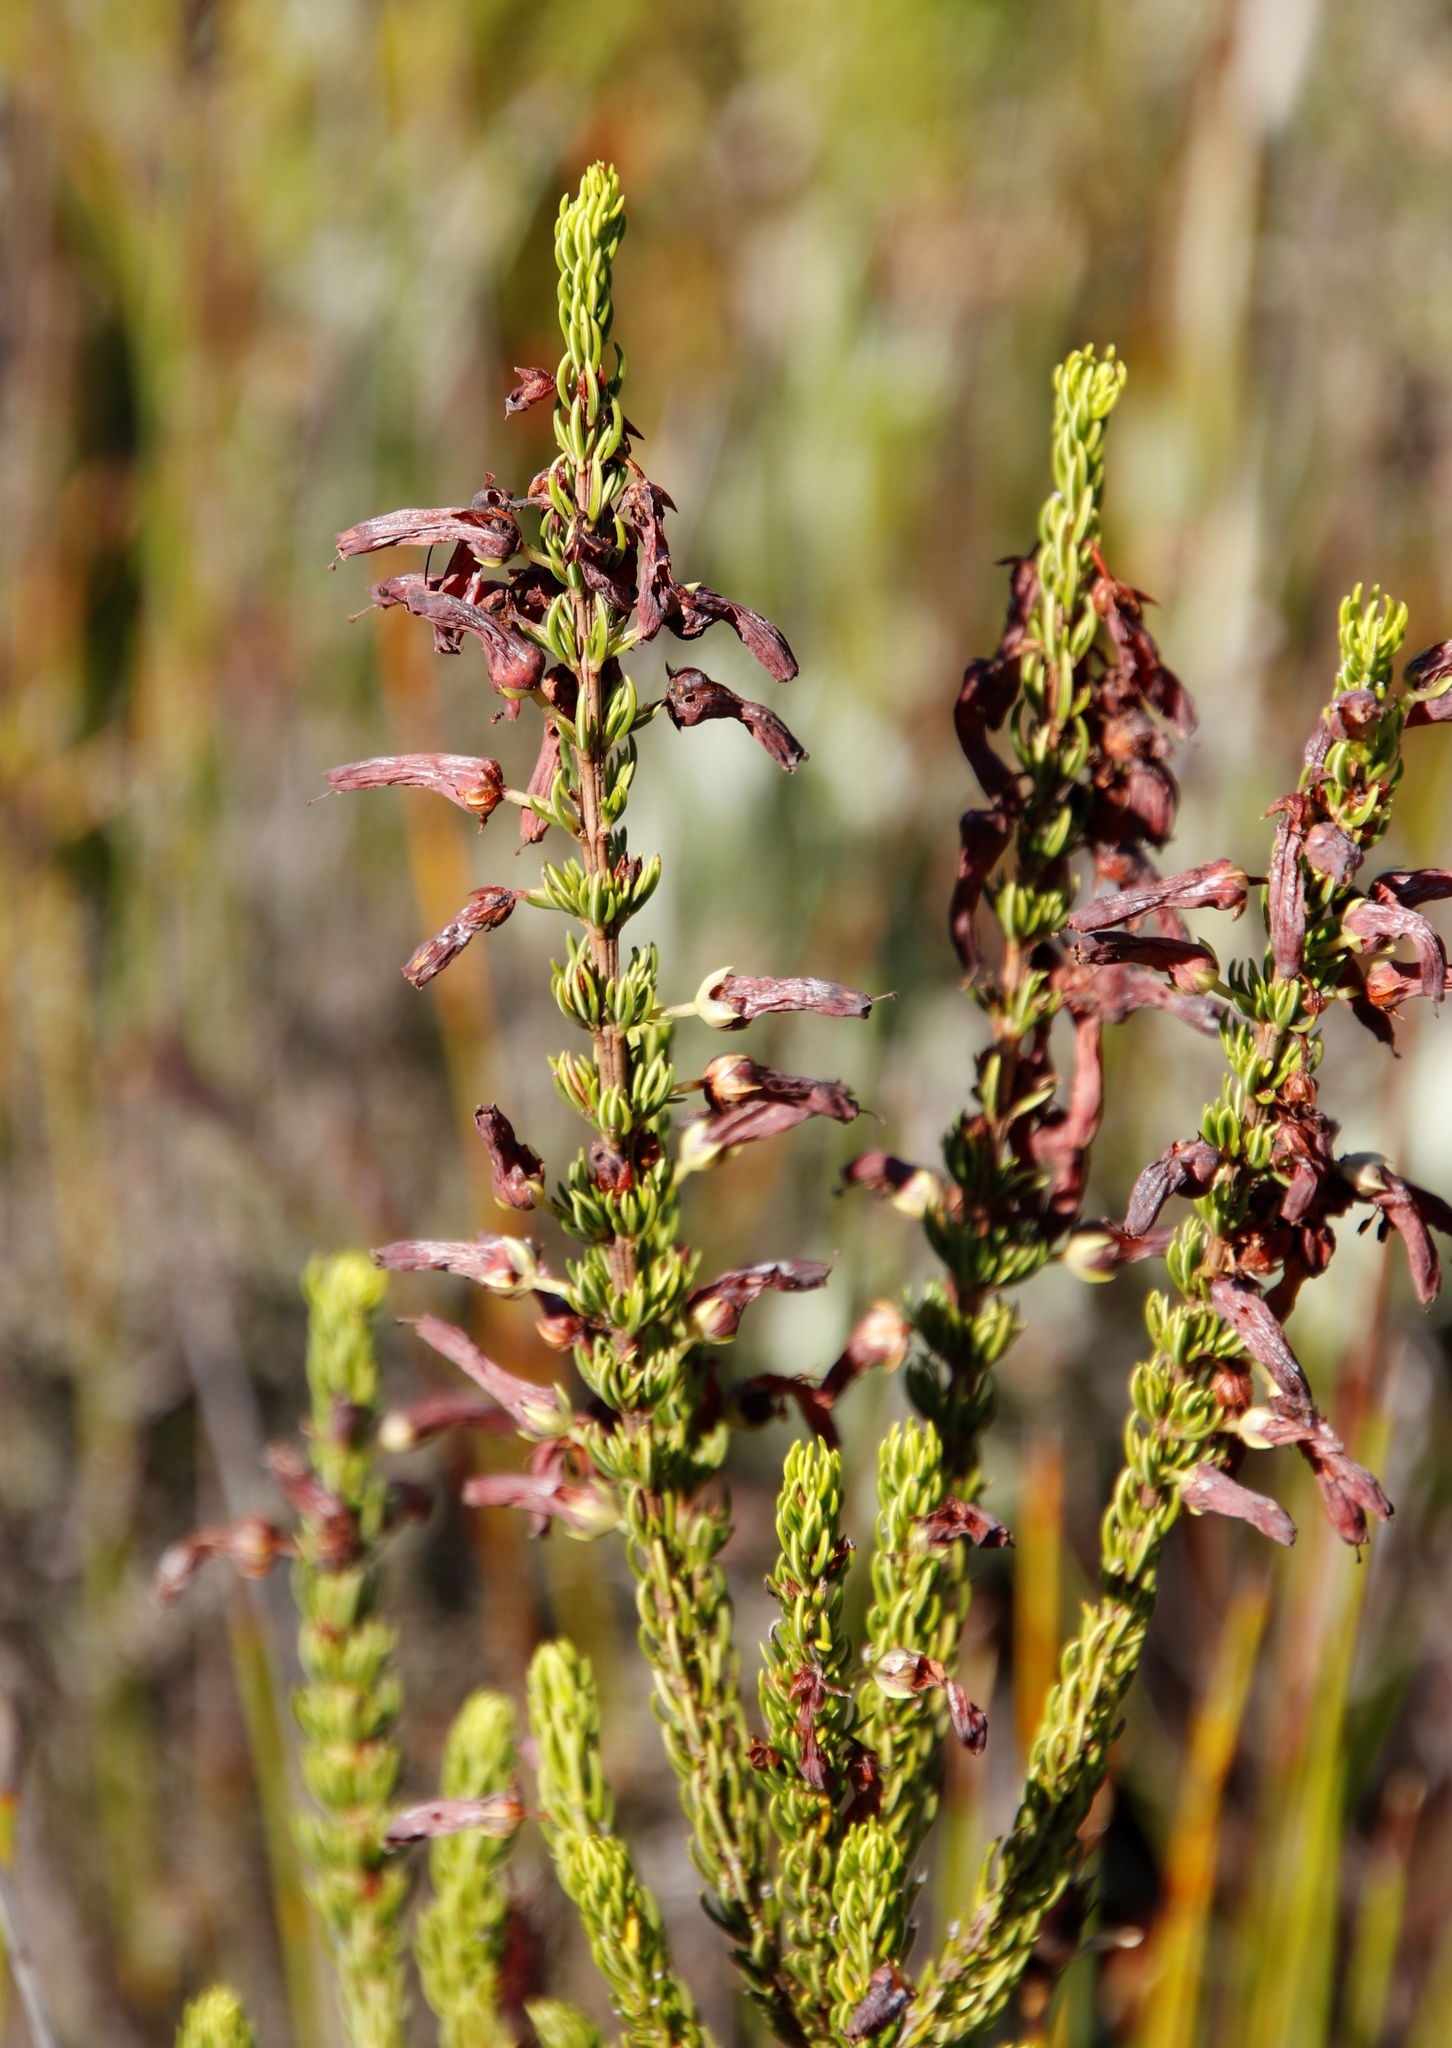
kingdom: Plantae
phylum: Tracheophyta
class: Magnoliopsida
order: Ericales
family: Ericaceae
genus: Erica
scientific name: Erica mammosa
